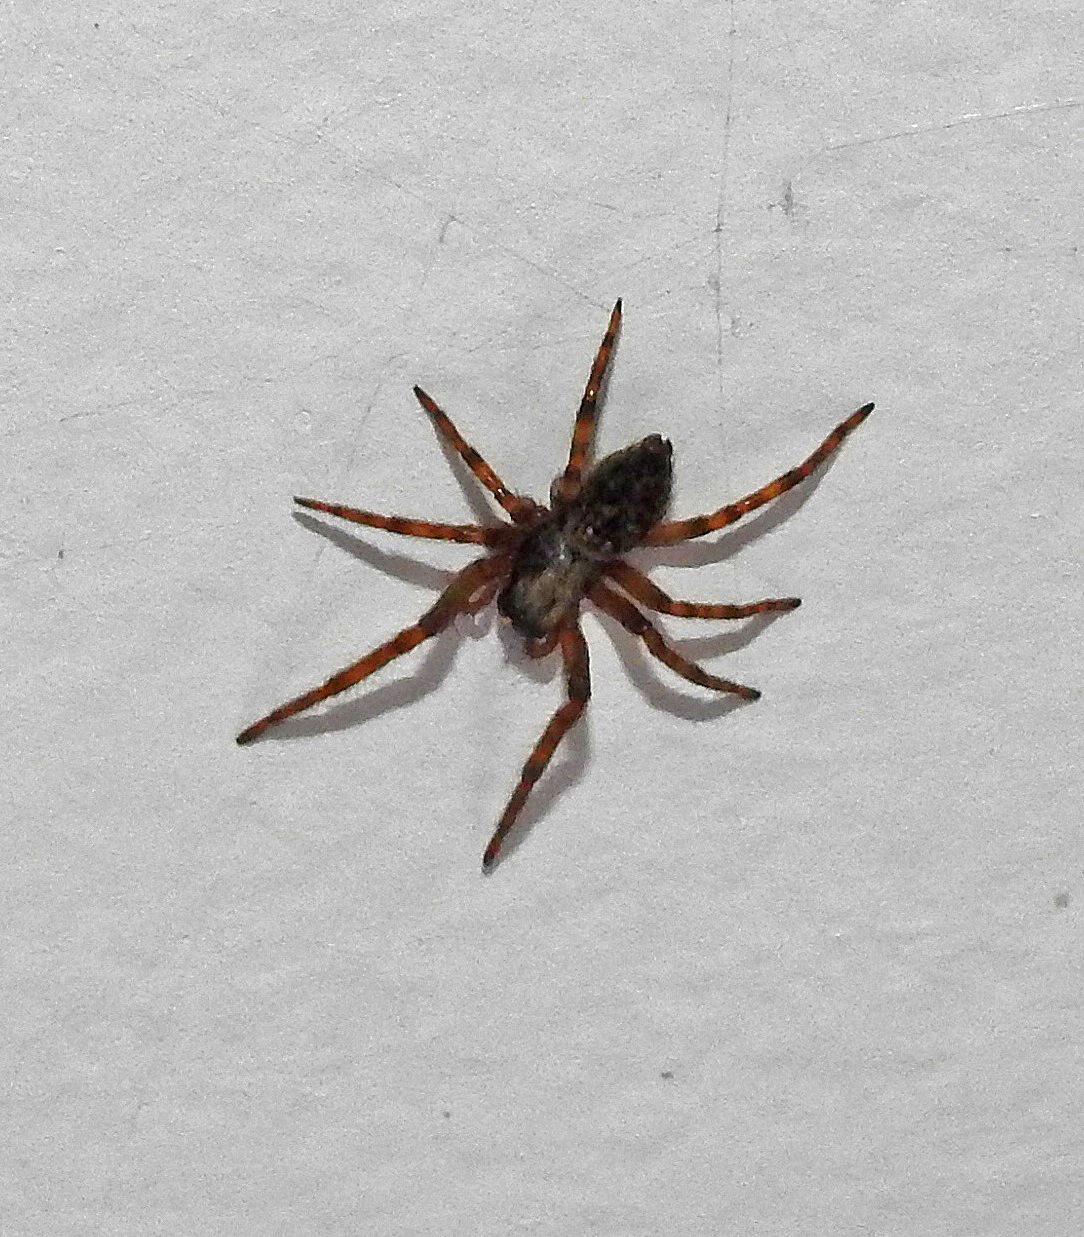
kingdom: Animalia
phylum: Arthropoda
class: Arachnida
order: Araneae
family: Desidae
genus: Badumna
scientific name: Badumna longinqua
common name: Gray house spider
